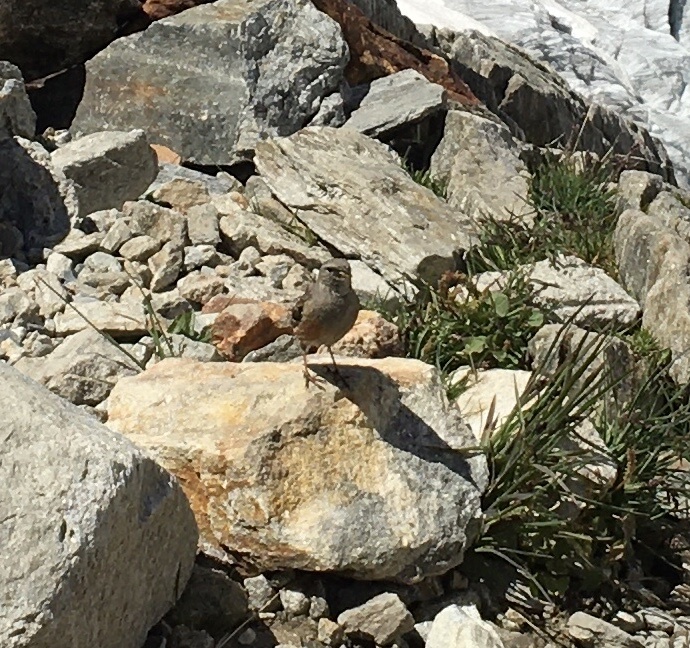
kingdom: Animalia
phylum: Chordata
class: Aves
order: Passeriformes
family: Prunellidae
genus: Prunella
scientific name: Prunella collaris
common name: Alpine accentor
